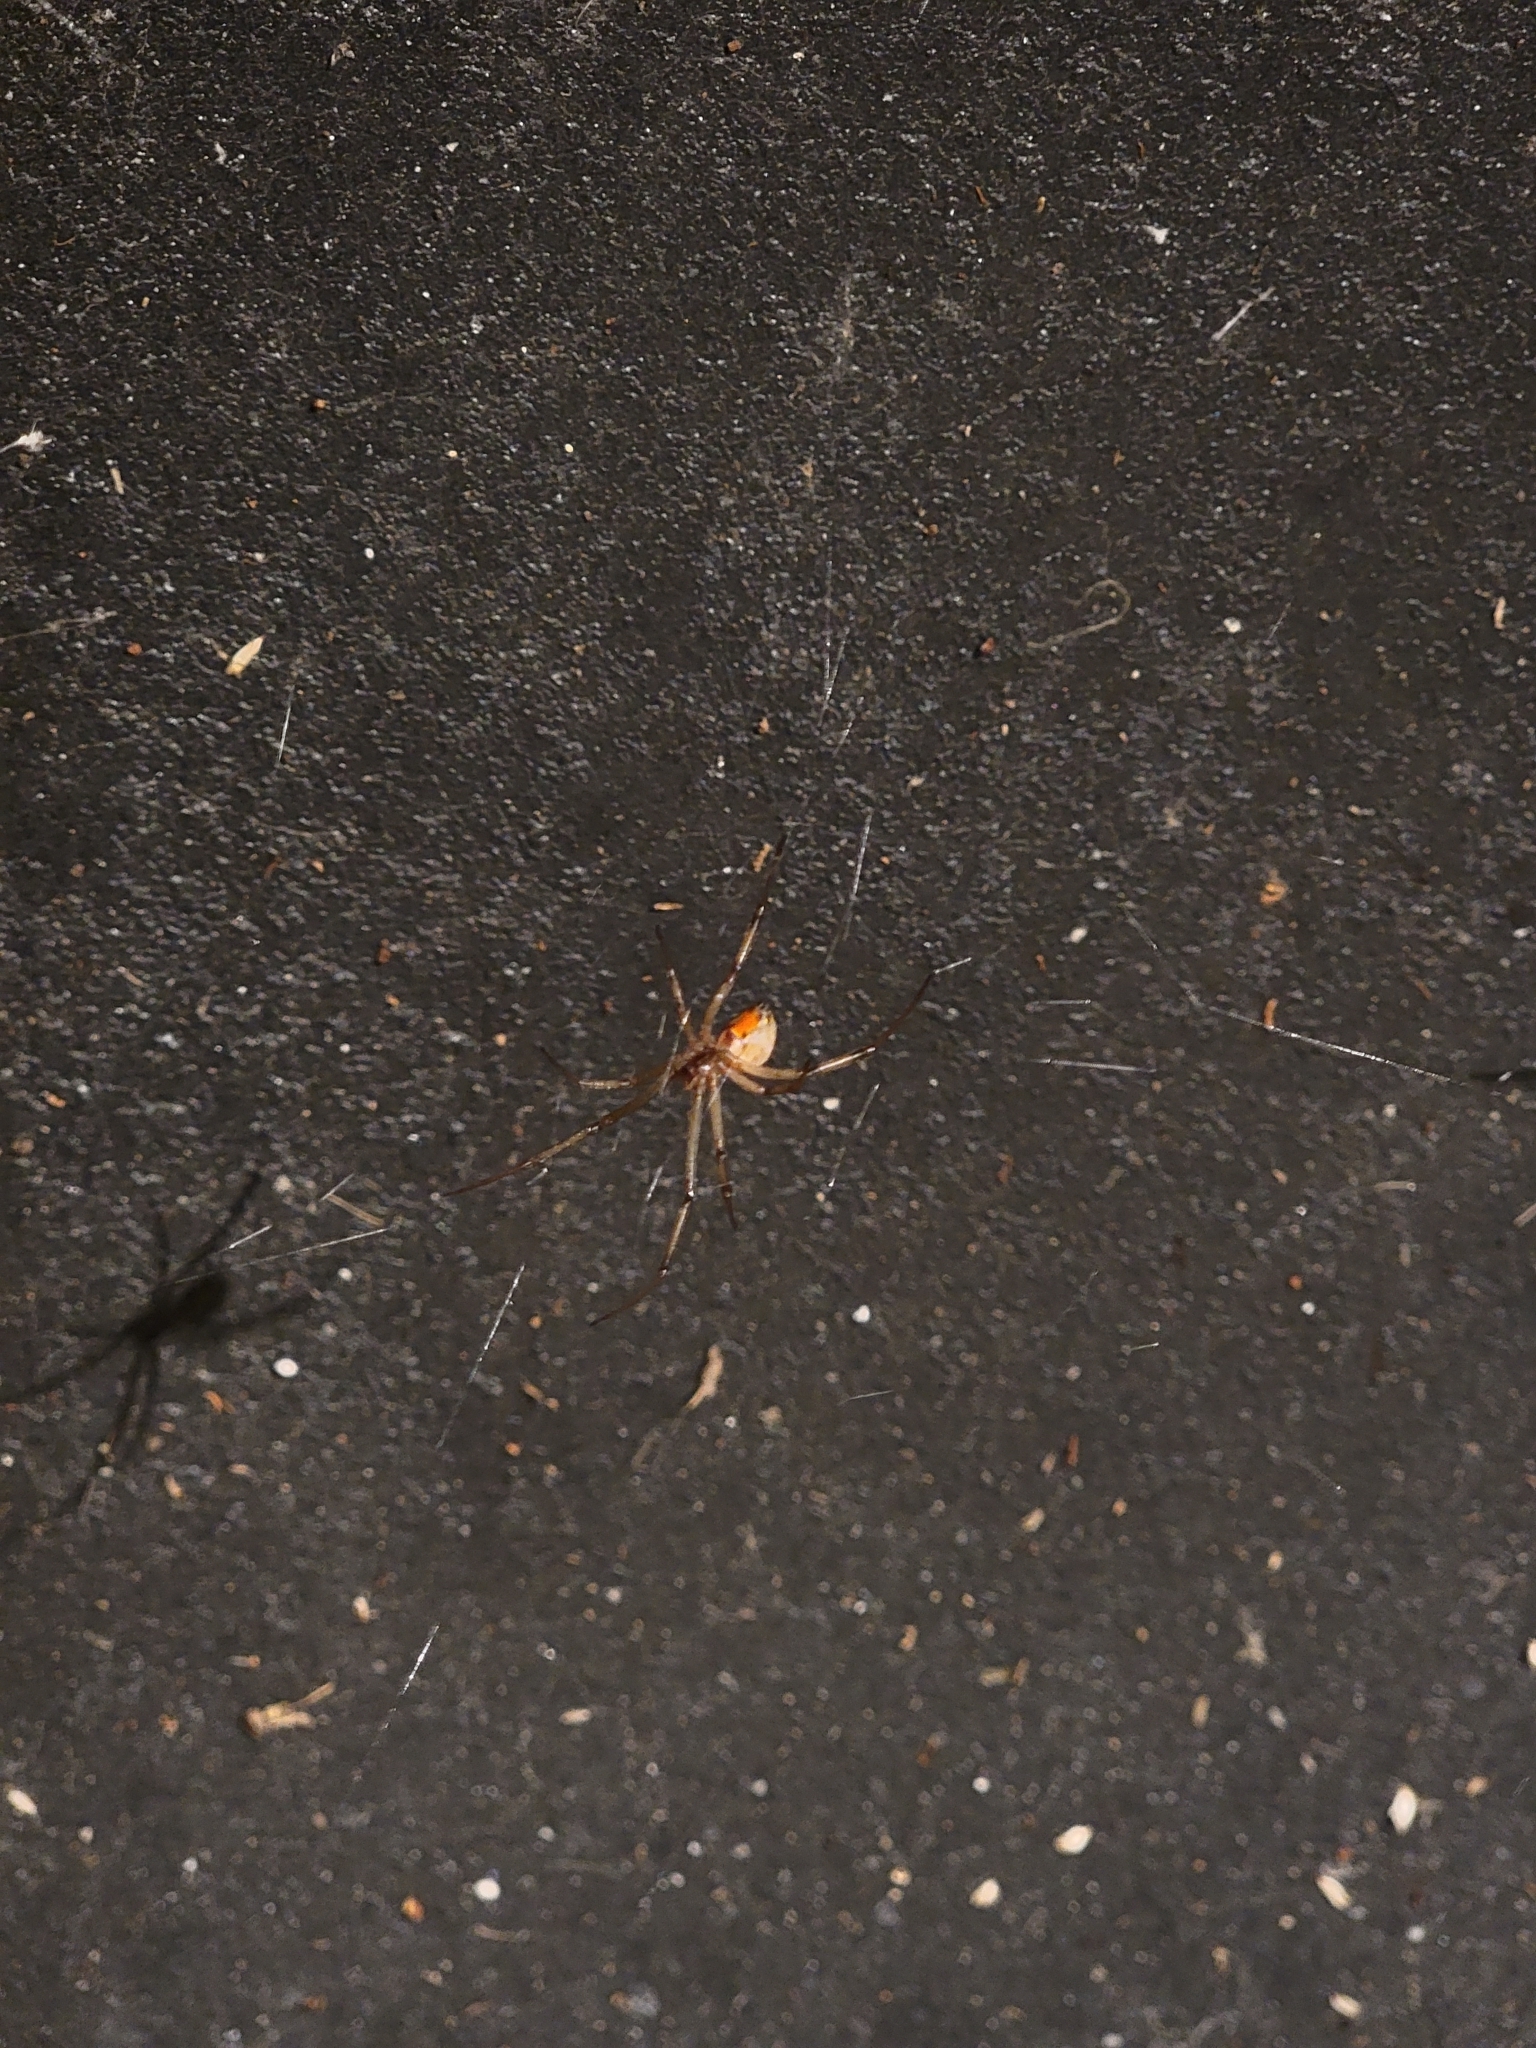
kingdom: Animalia
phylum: Arthropoda
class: Arachnida
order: Araneae
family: Theridiidae
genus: Latrodectus
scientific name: Latrodectus geometricus
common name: Brown widow spider
